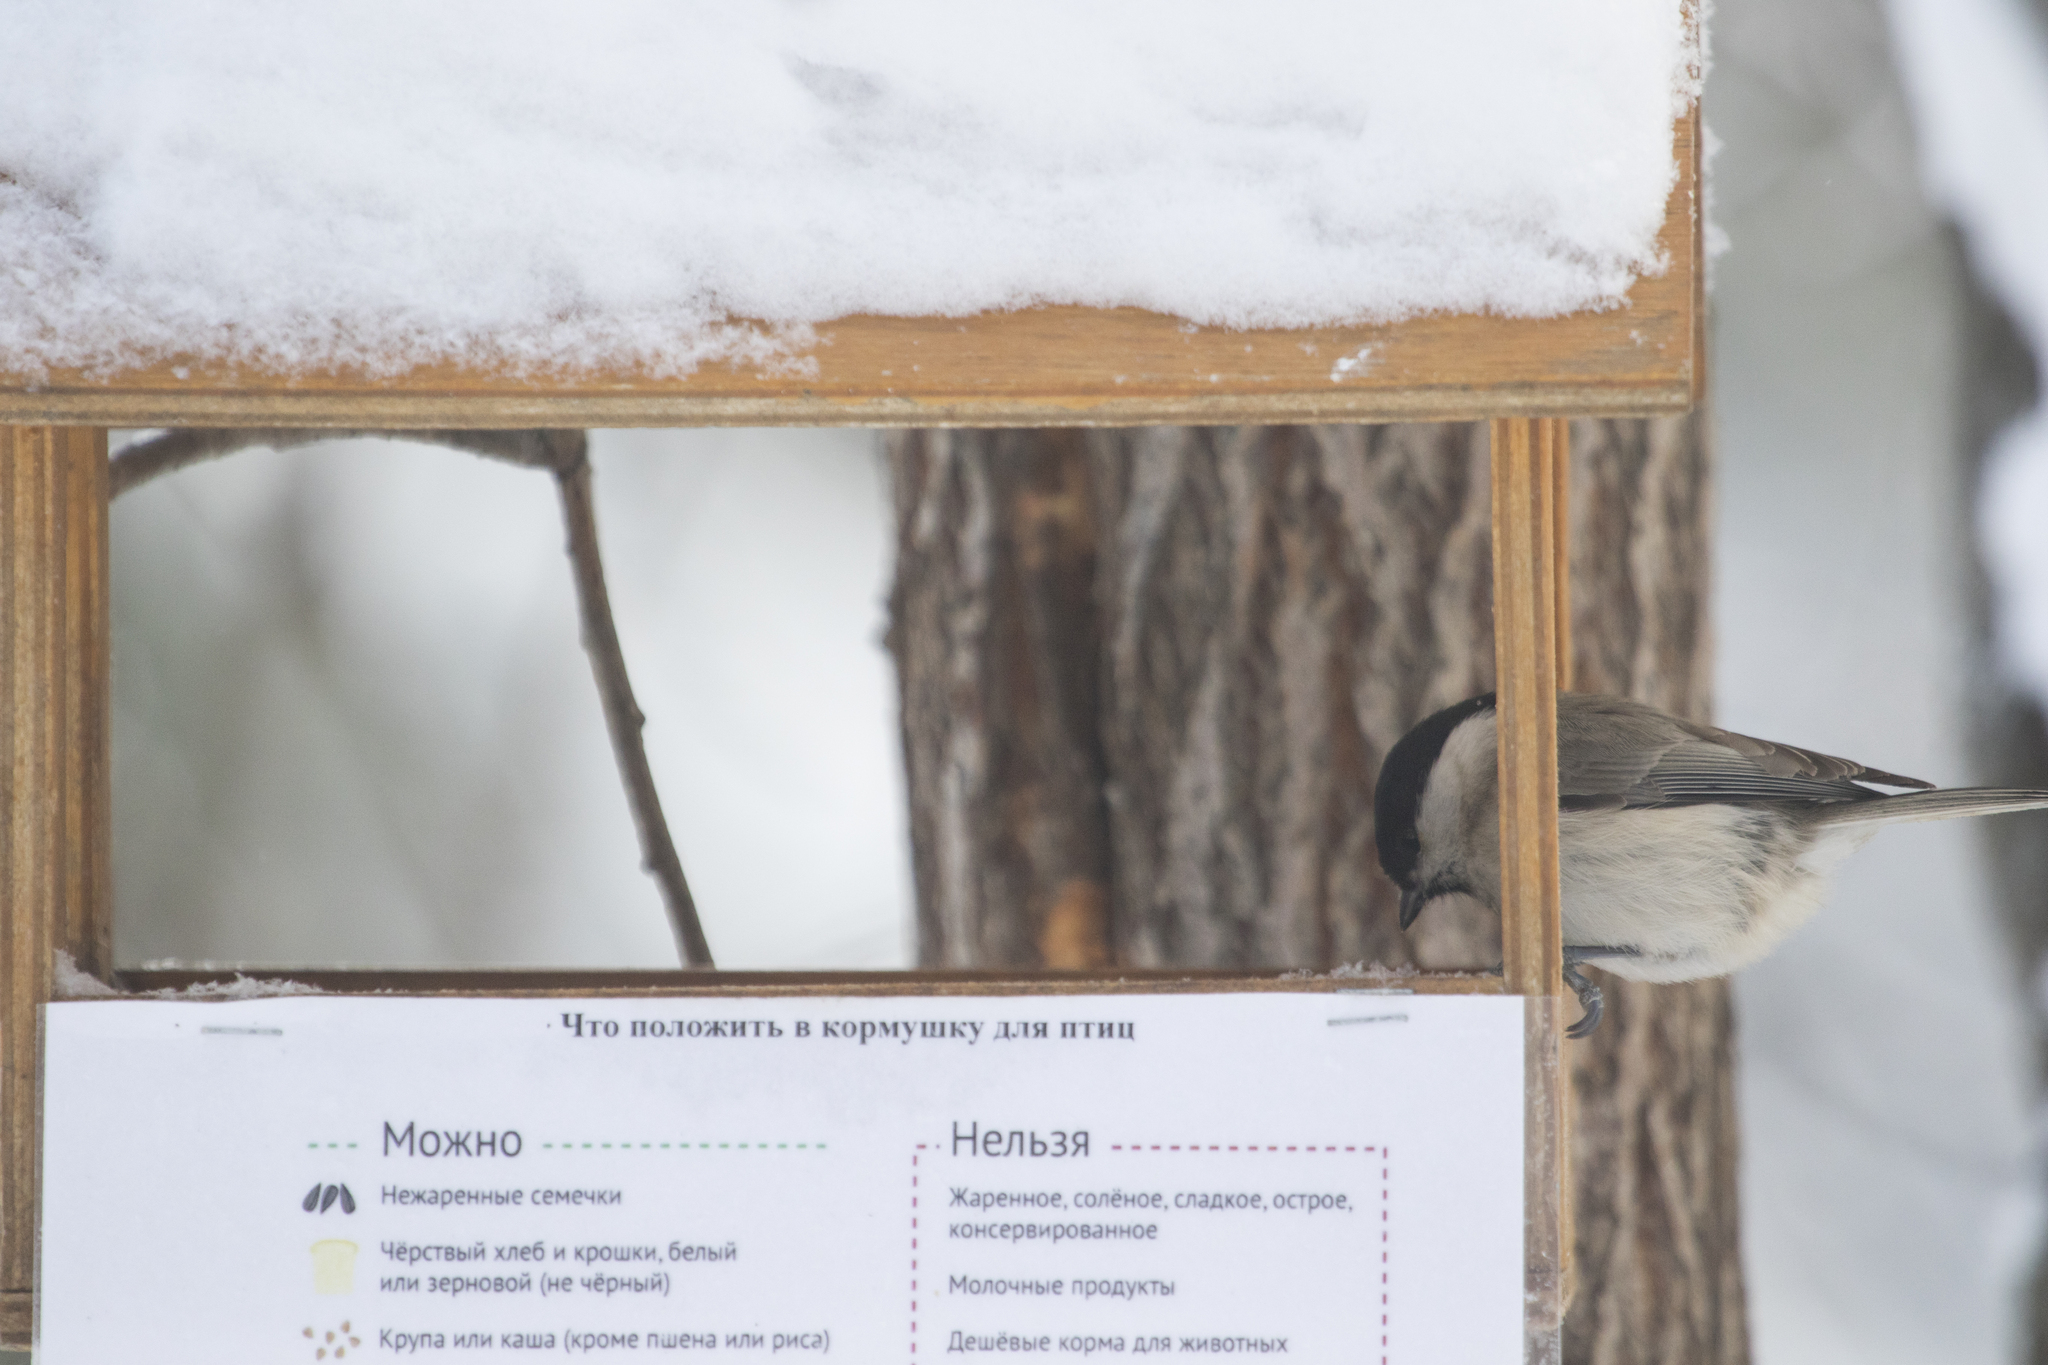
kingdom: Animalia
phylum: Chordata
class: Aves
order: Passeriformes
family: Paridae
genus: Poecile
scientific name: Poecile palustris
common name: Marsh tit
